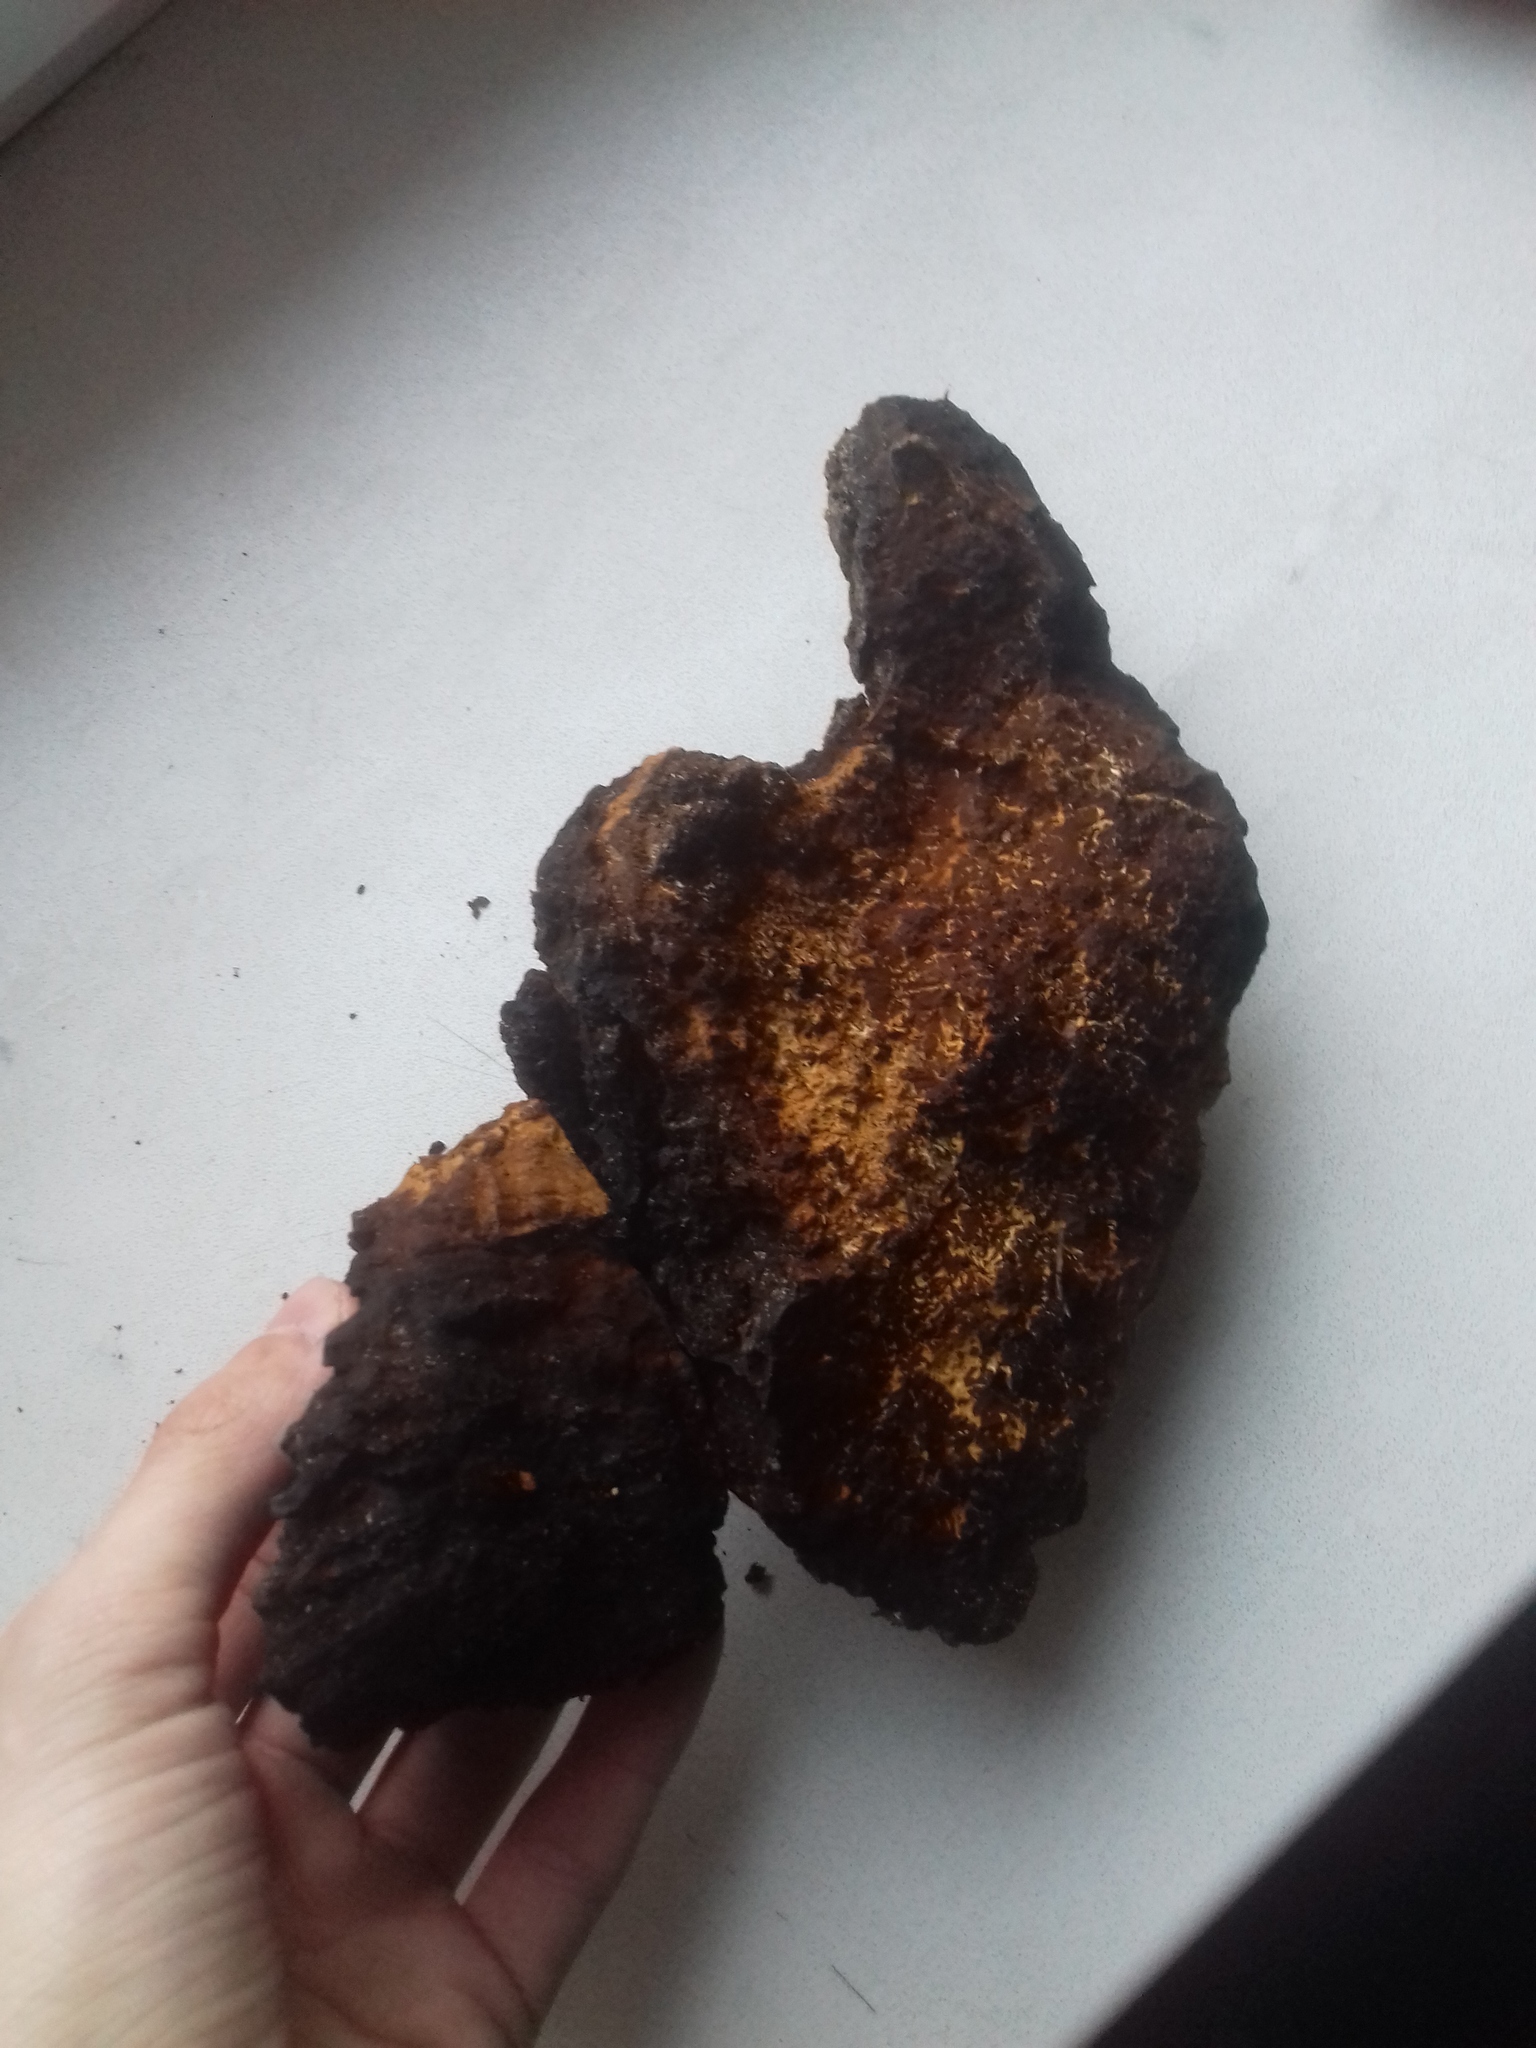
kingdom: Fungi
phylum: Basidiomycota
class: Agaricomycetes
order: Hymenochaetales
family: Hymenochaetaceae
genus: Inonotus
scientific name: Inonotus obliquus
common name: Chaga
